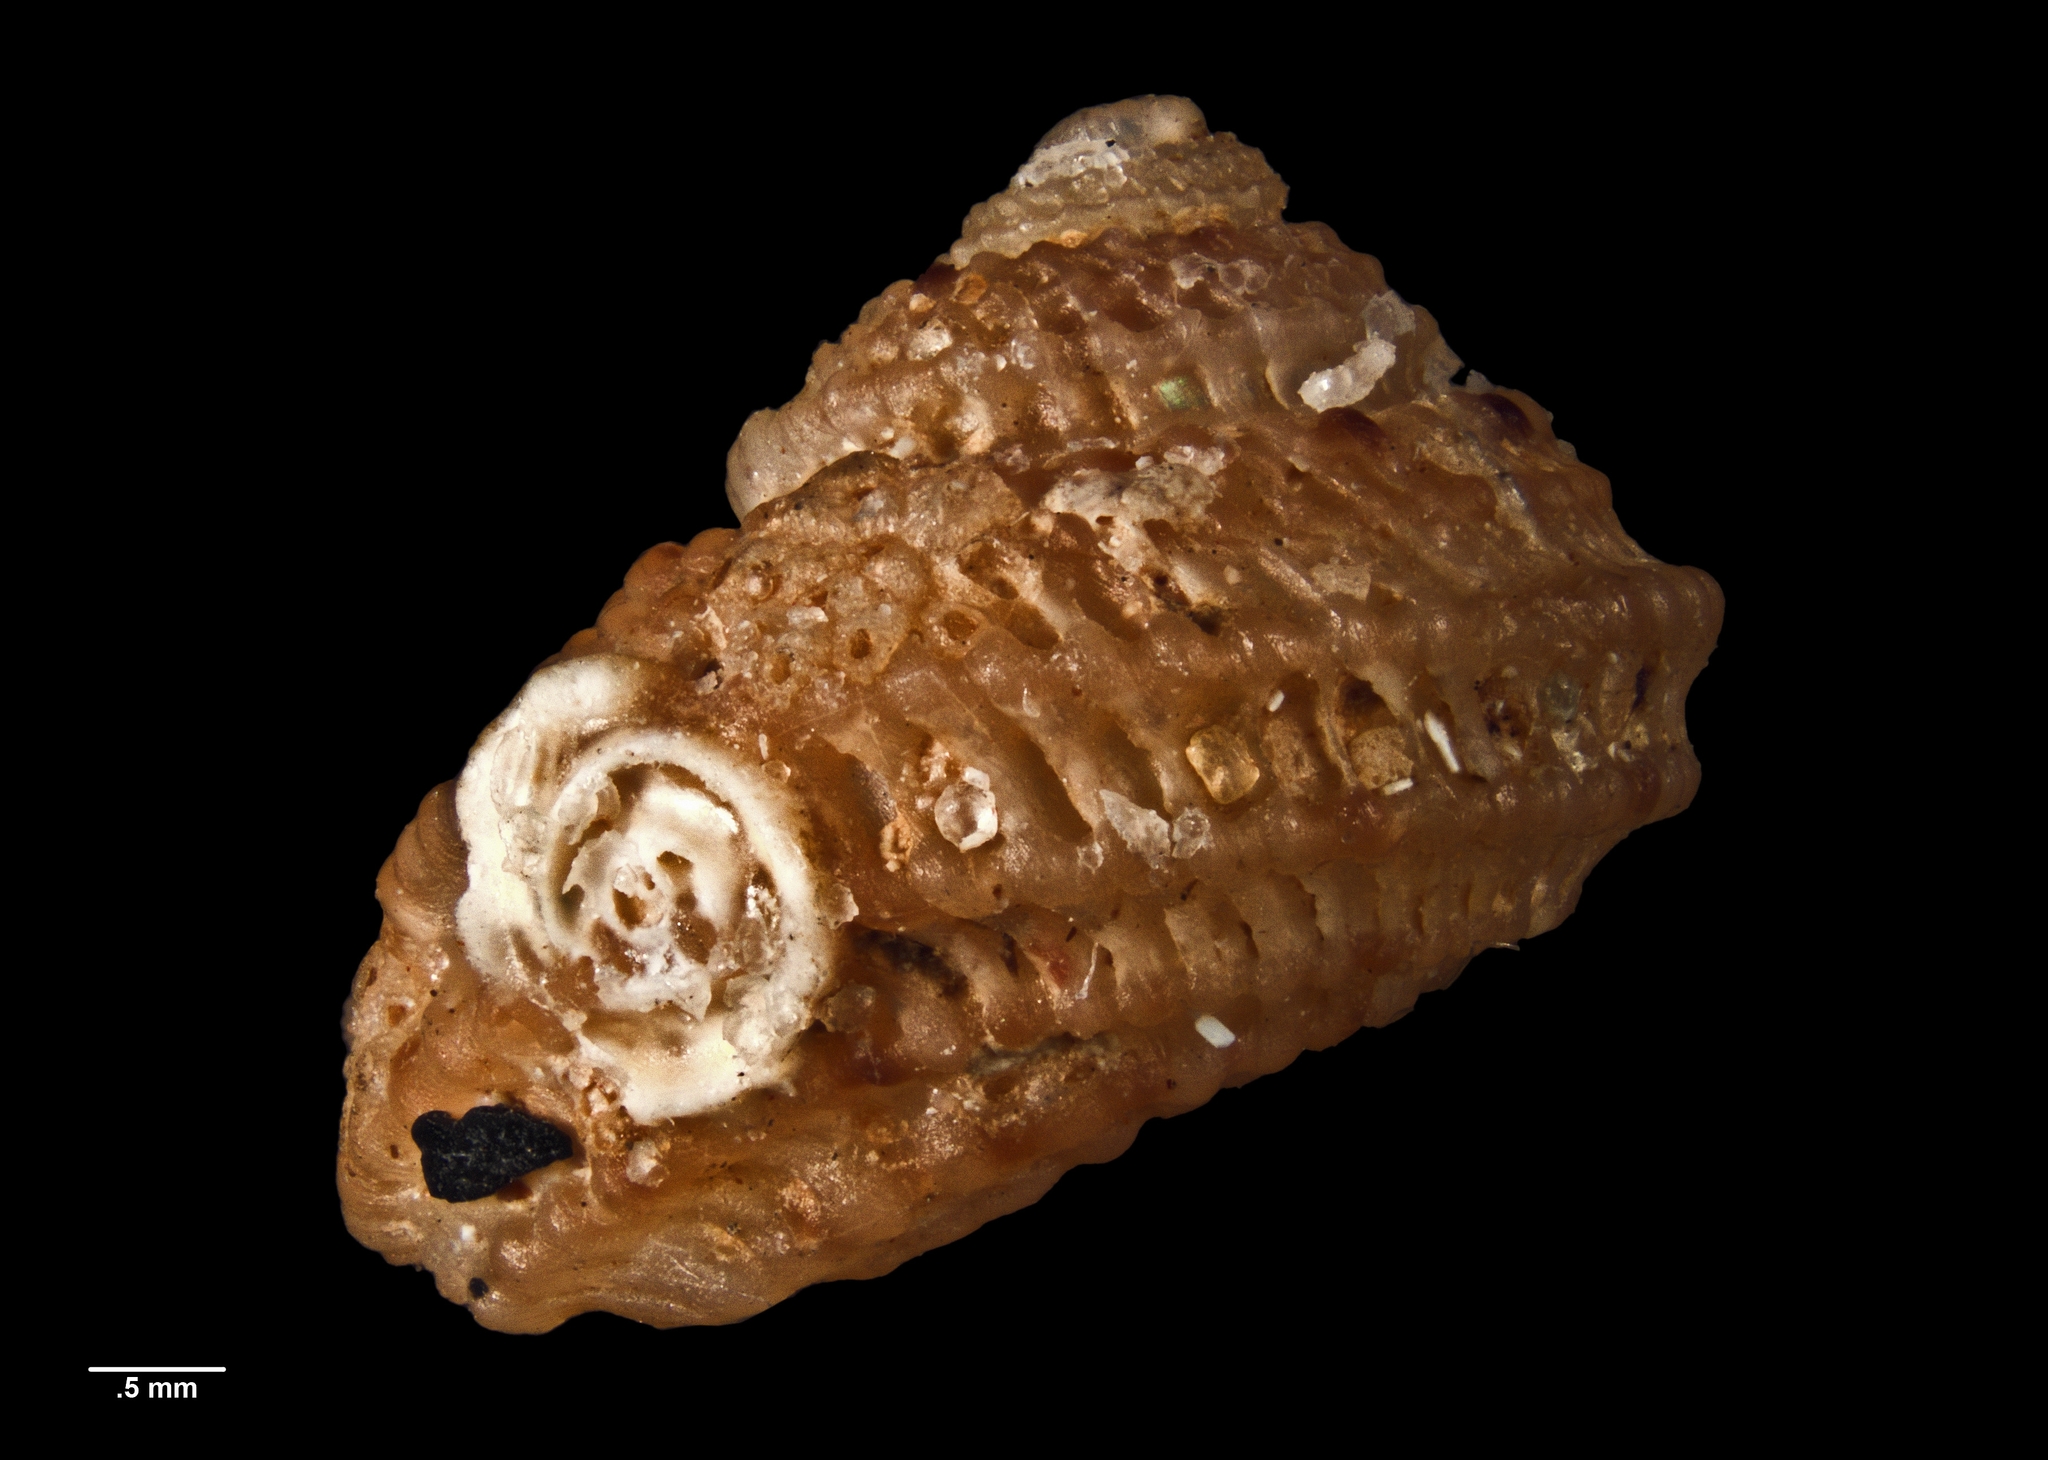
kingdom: Animalia
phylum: Mollusca
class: Gastropoda
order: Seguenziida
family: Chilodontaidae
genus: Herpetopoma
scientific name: Herpetopoma larochei
